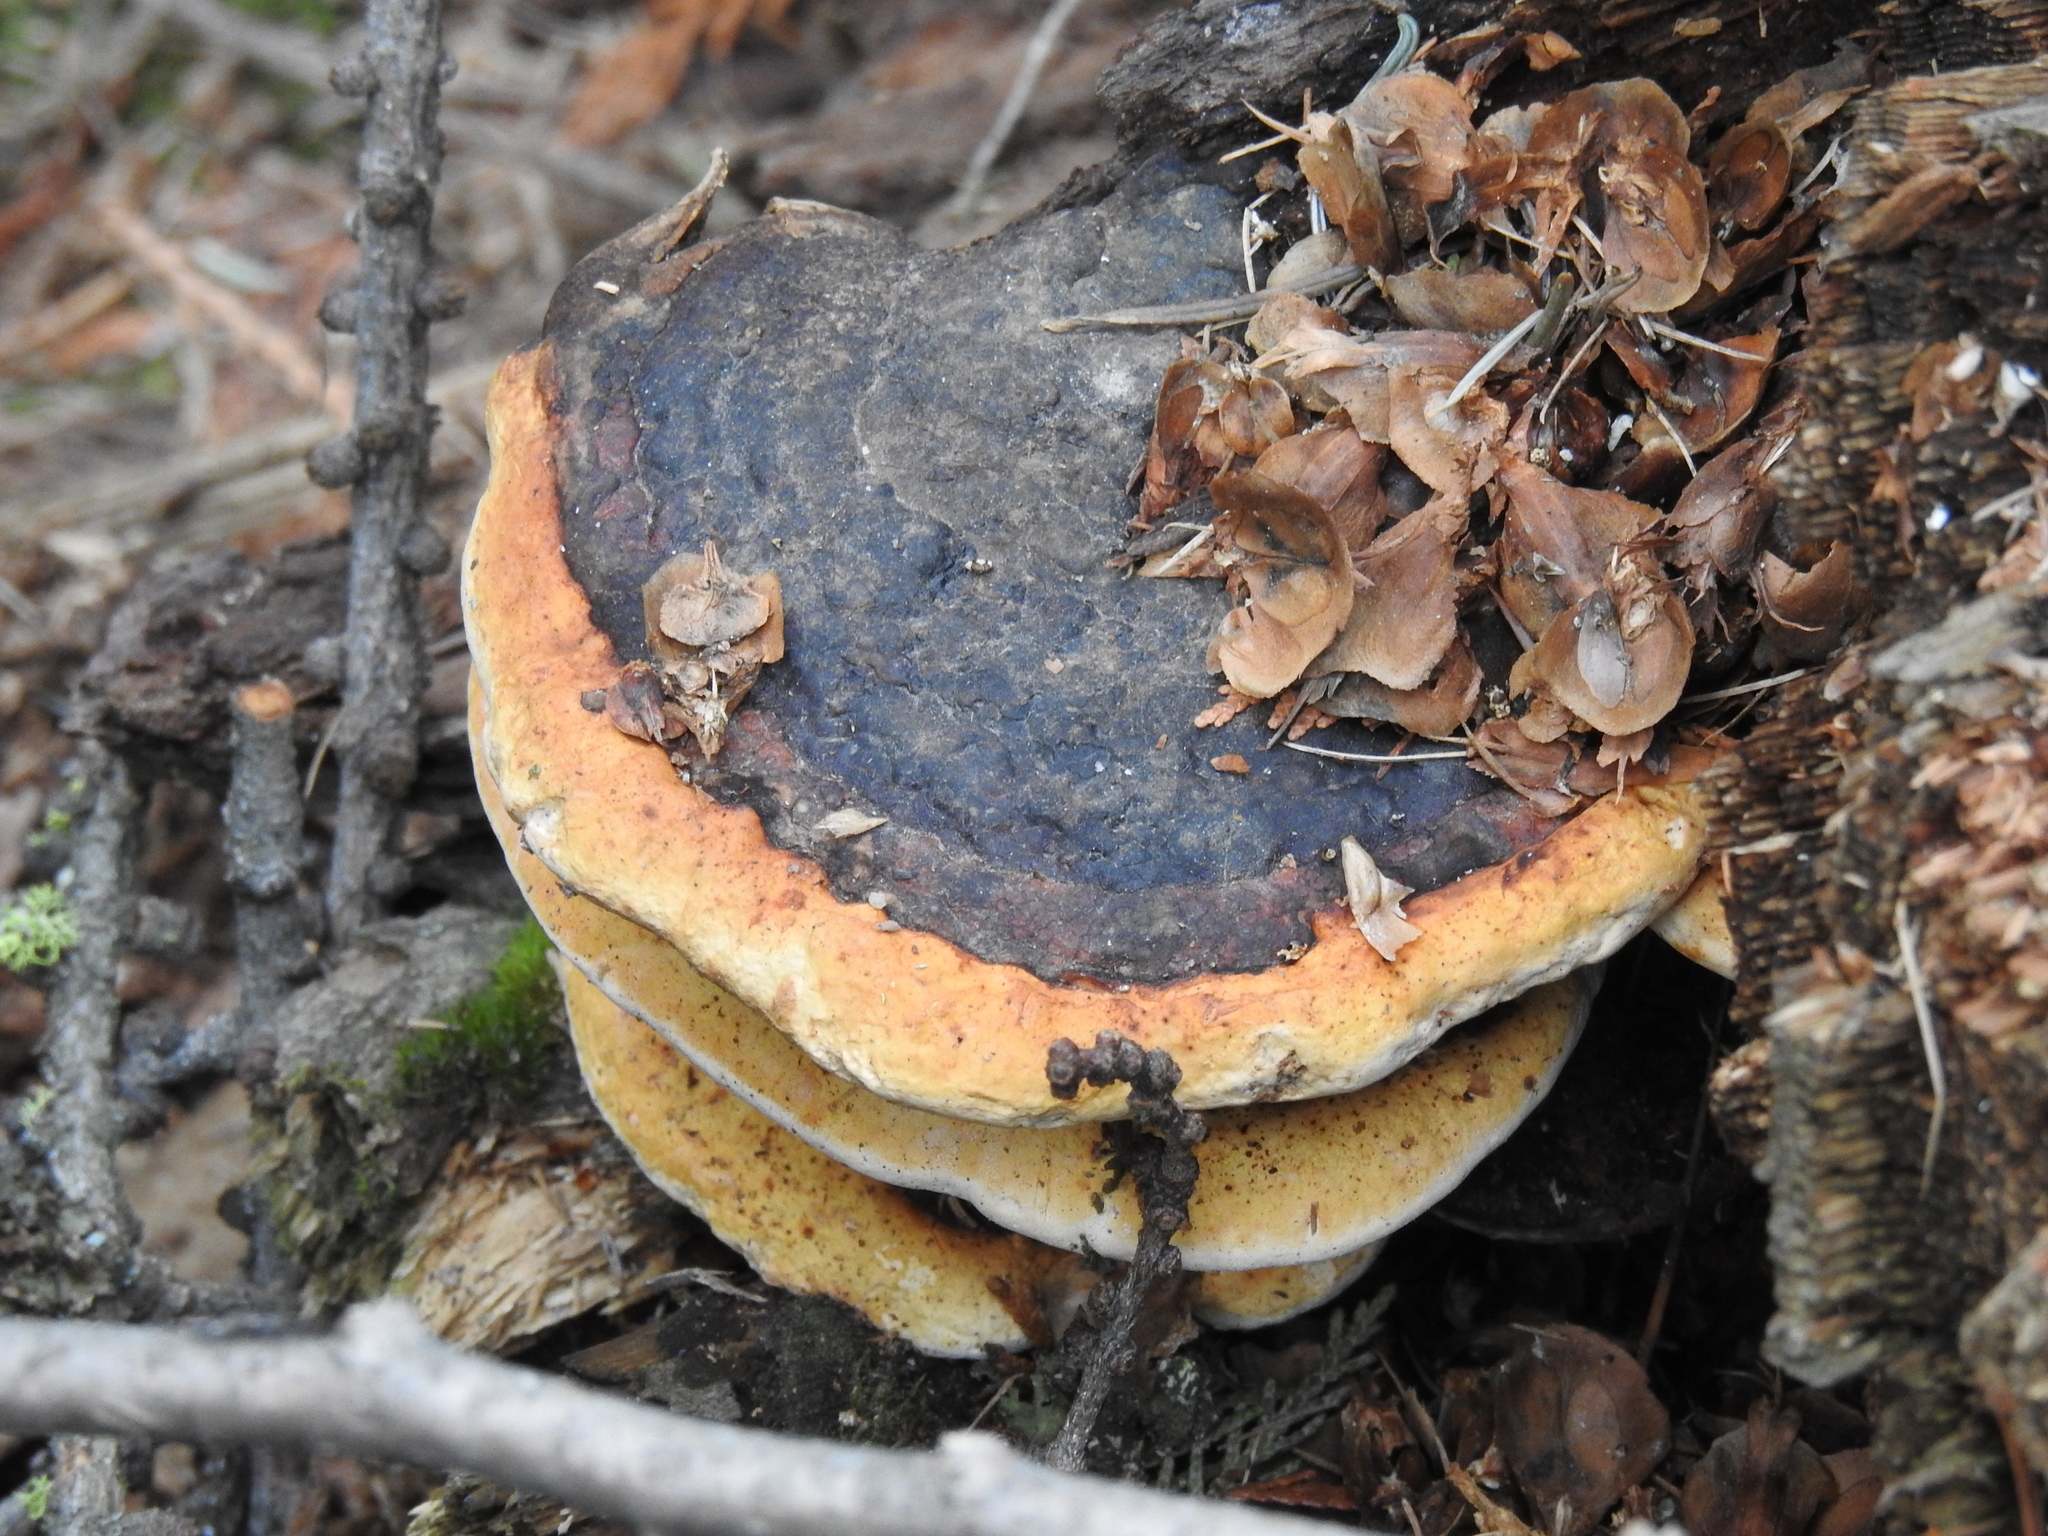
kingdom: Fungi
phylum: Basidiomycota
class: Agaricomycetes
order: Polyporales
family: Fomitopsidaceae
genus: Fomitopsis
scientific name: Fomitopsis mounceae
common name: Northern red belt
